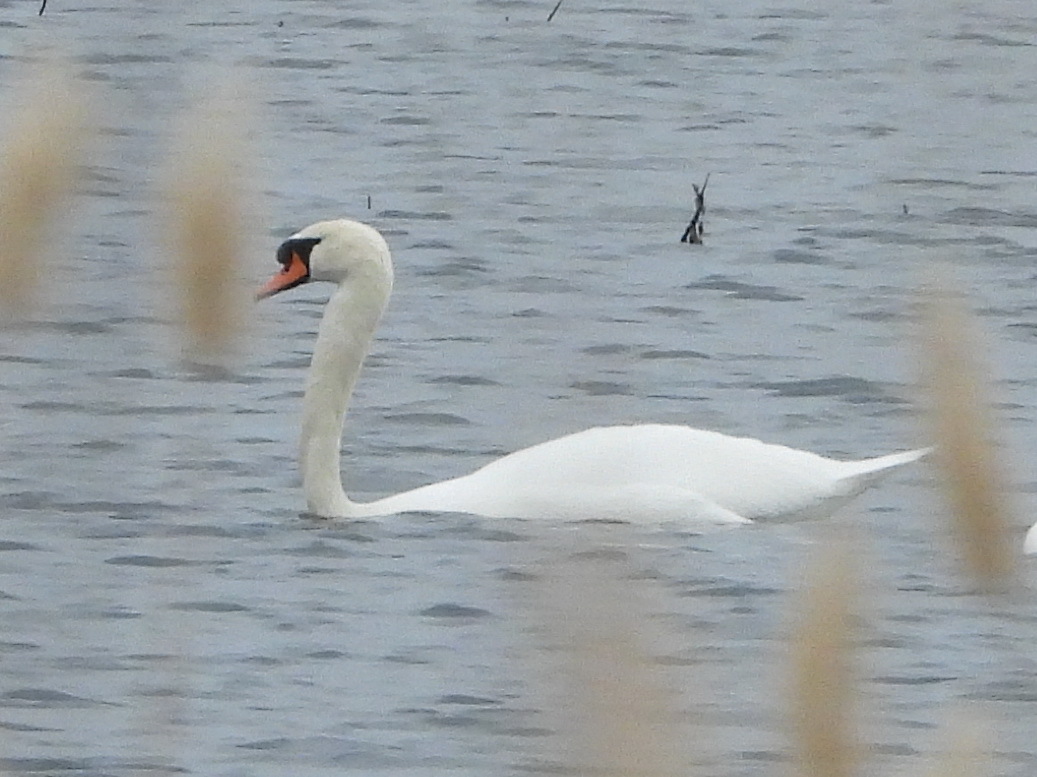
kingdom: Animalia
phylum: Chordata
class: Aves
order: Anseriformes
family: Anatidae
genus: Cygnus
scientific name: Cygnus olor
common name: Mute swan
